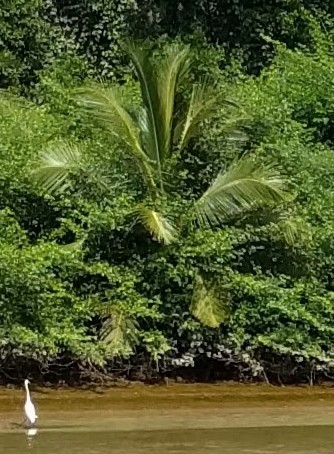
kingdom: Animalia
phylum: Chordata
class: Aves
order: Pelecaniformes
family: Ardeidae
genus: Ardea
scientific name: Ardea alba
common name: Great egret
